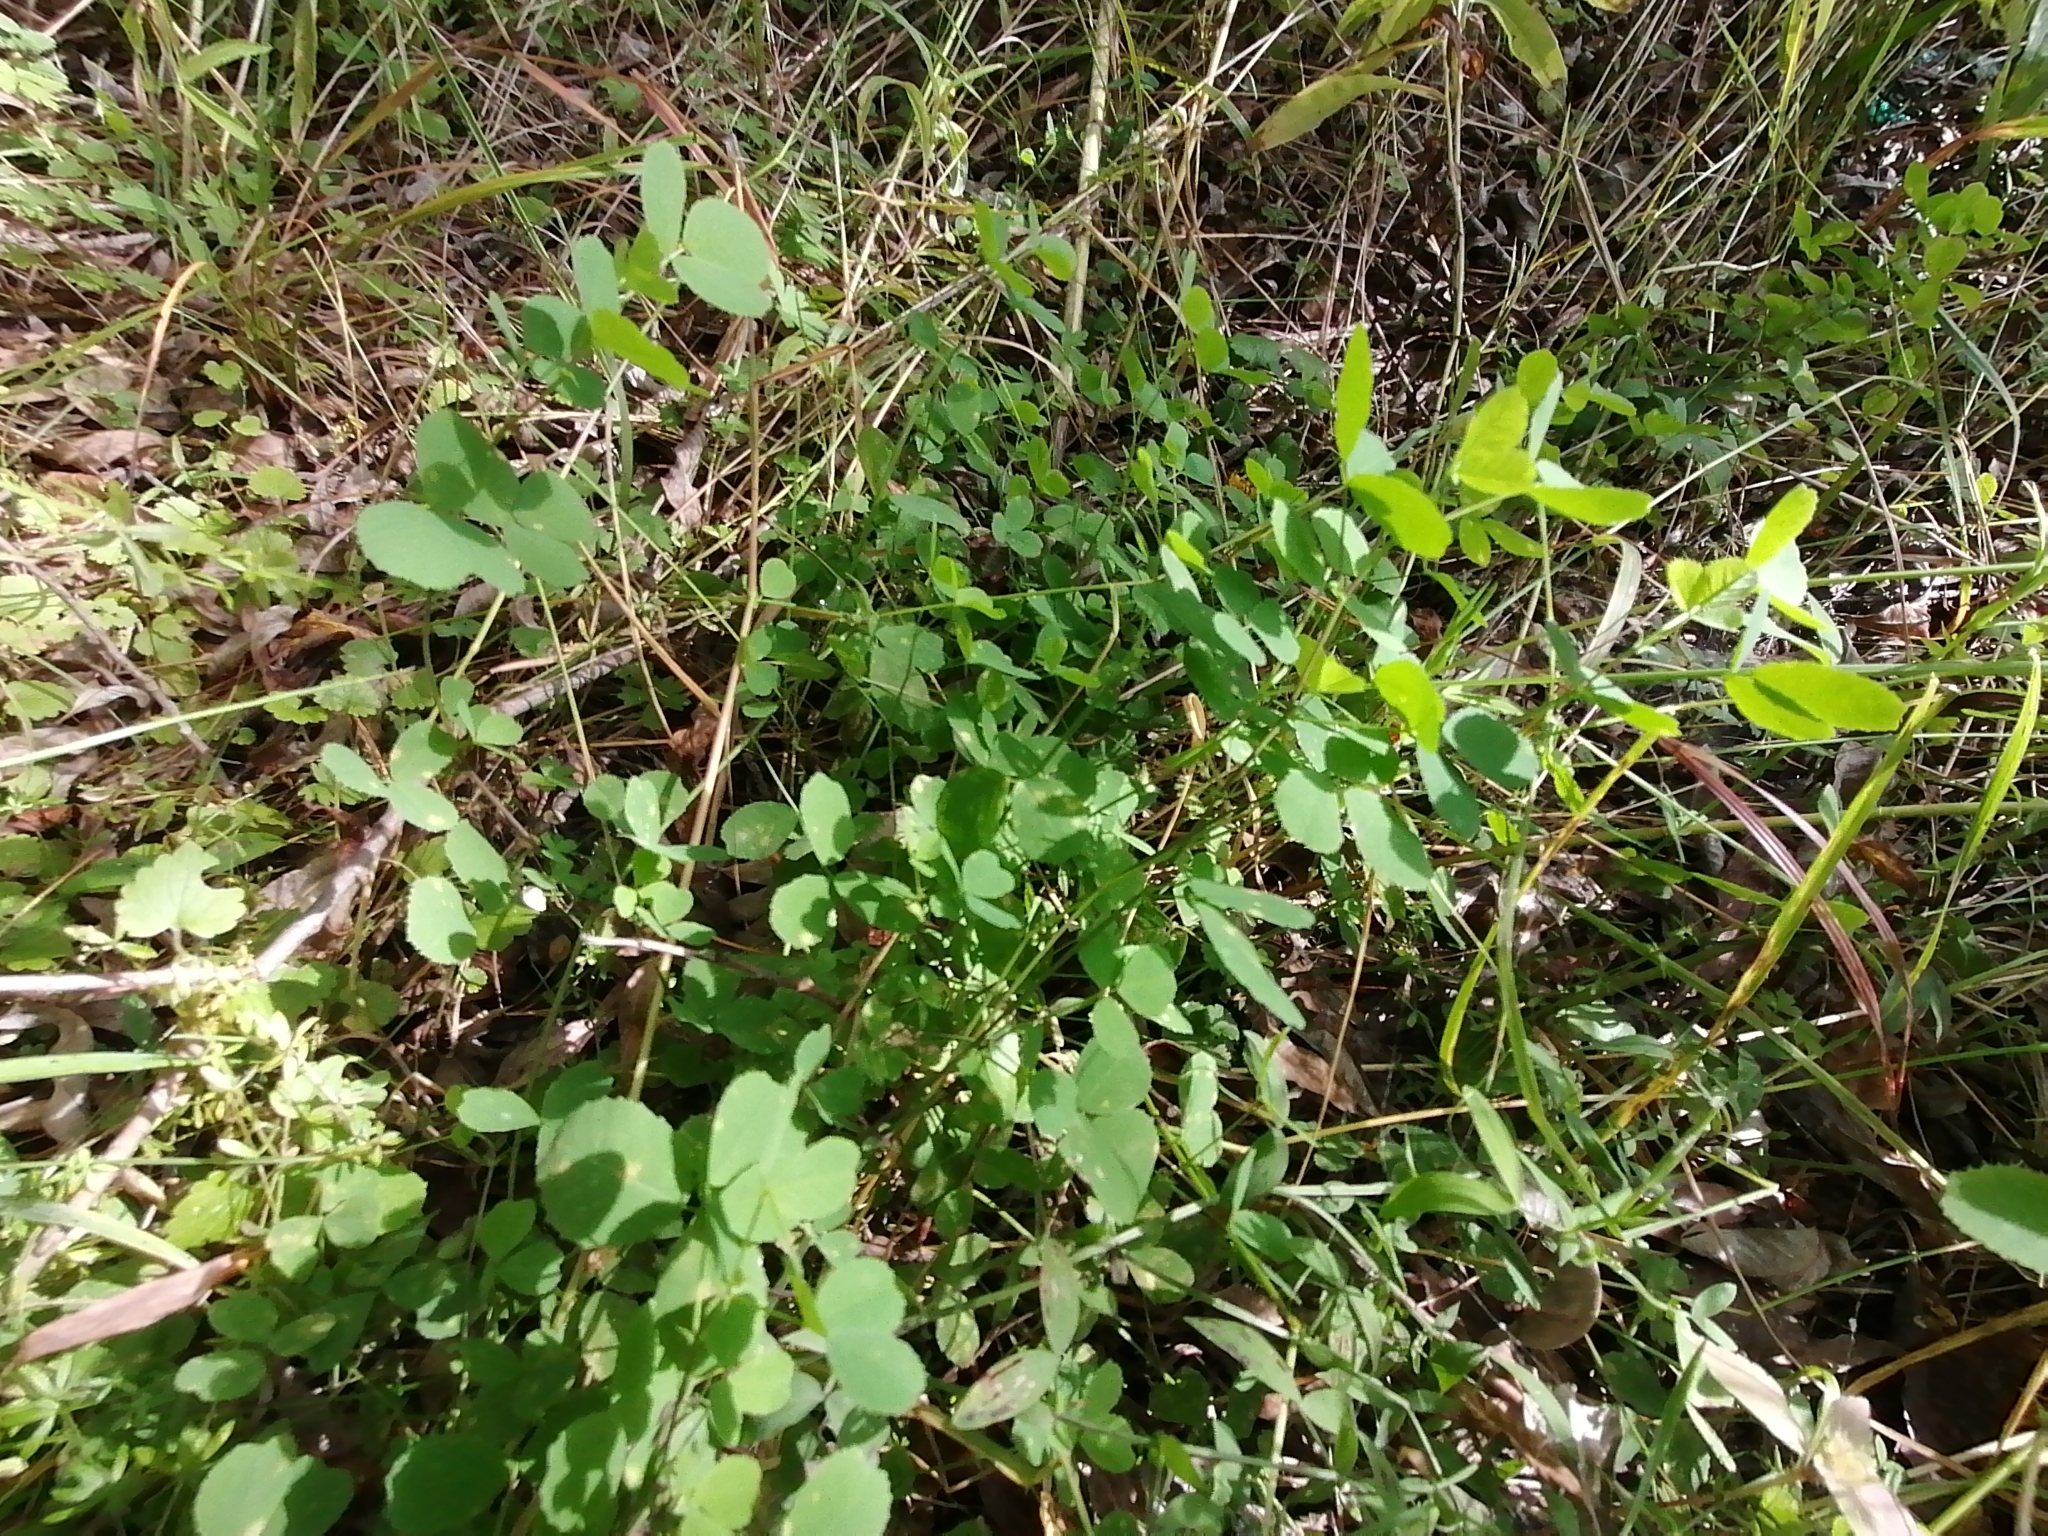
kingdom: Plantae
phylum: Tracheophyta
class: Magnoliopsida
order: Fabales
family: Fabaceae
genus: Medicago
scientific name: Medicago lupulina
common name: Black medick
